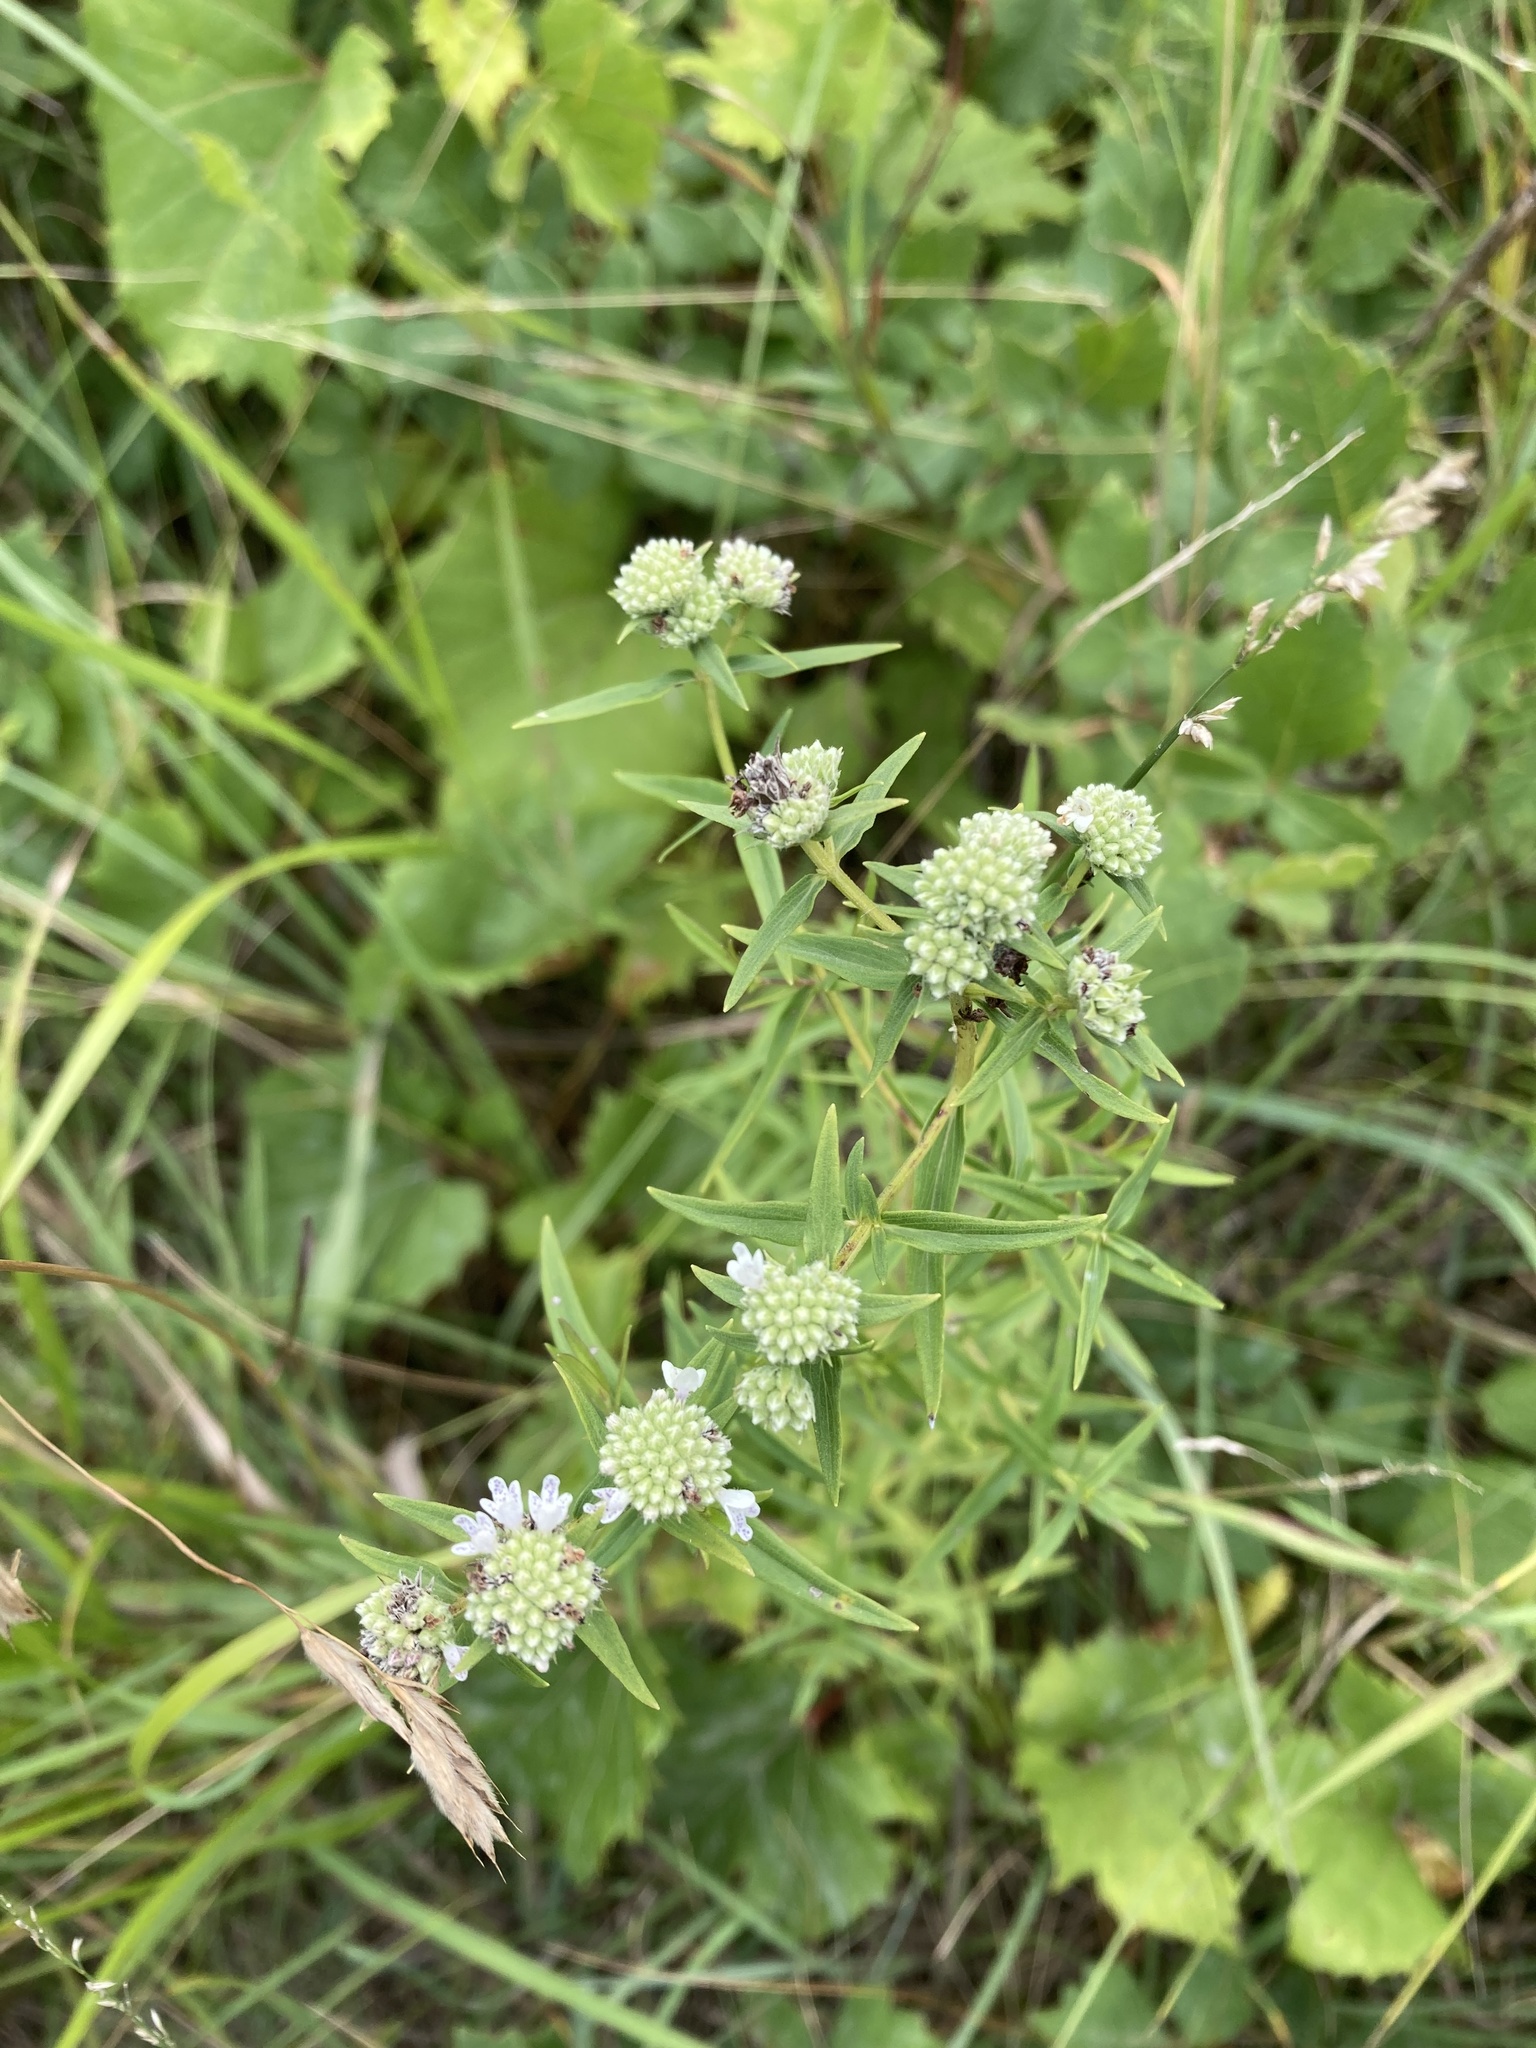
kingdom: Plantae
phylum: Tracheophyta
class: Magnoliopsida
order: Lamiales
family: Lamiaceae
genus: Pycnanthemum
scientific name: Pycnanthemum virginianum
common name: Virginia mountain-mint
